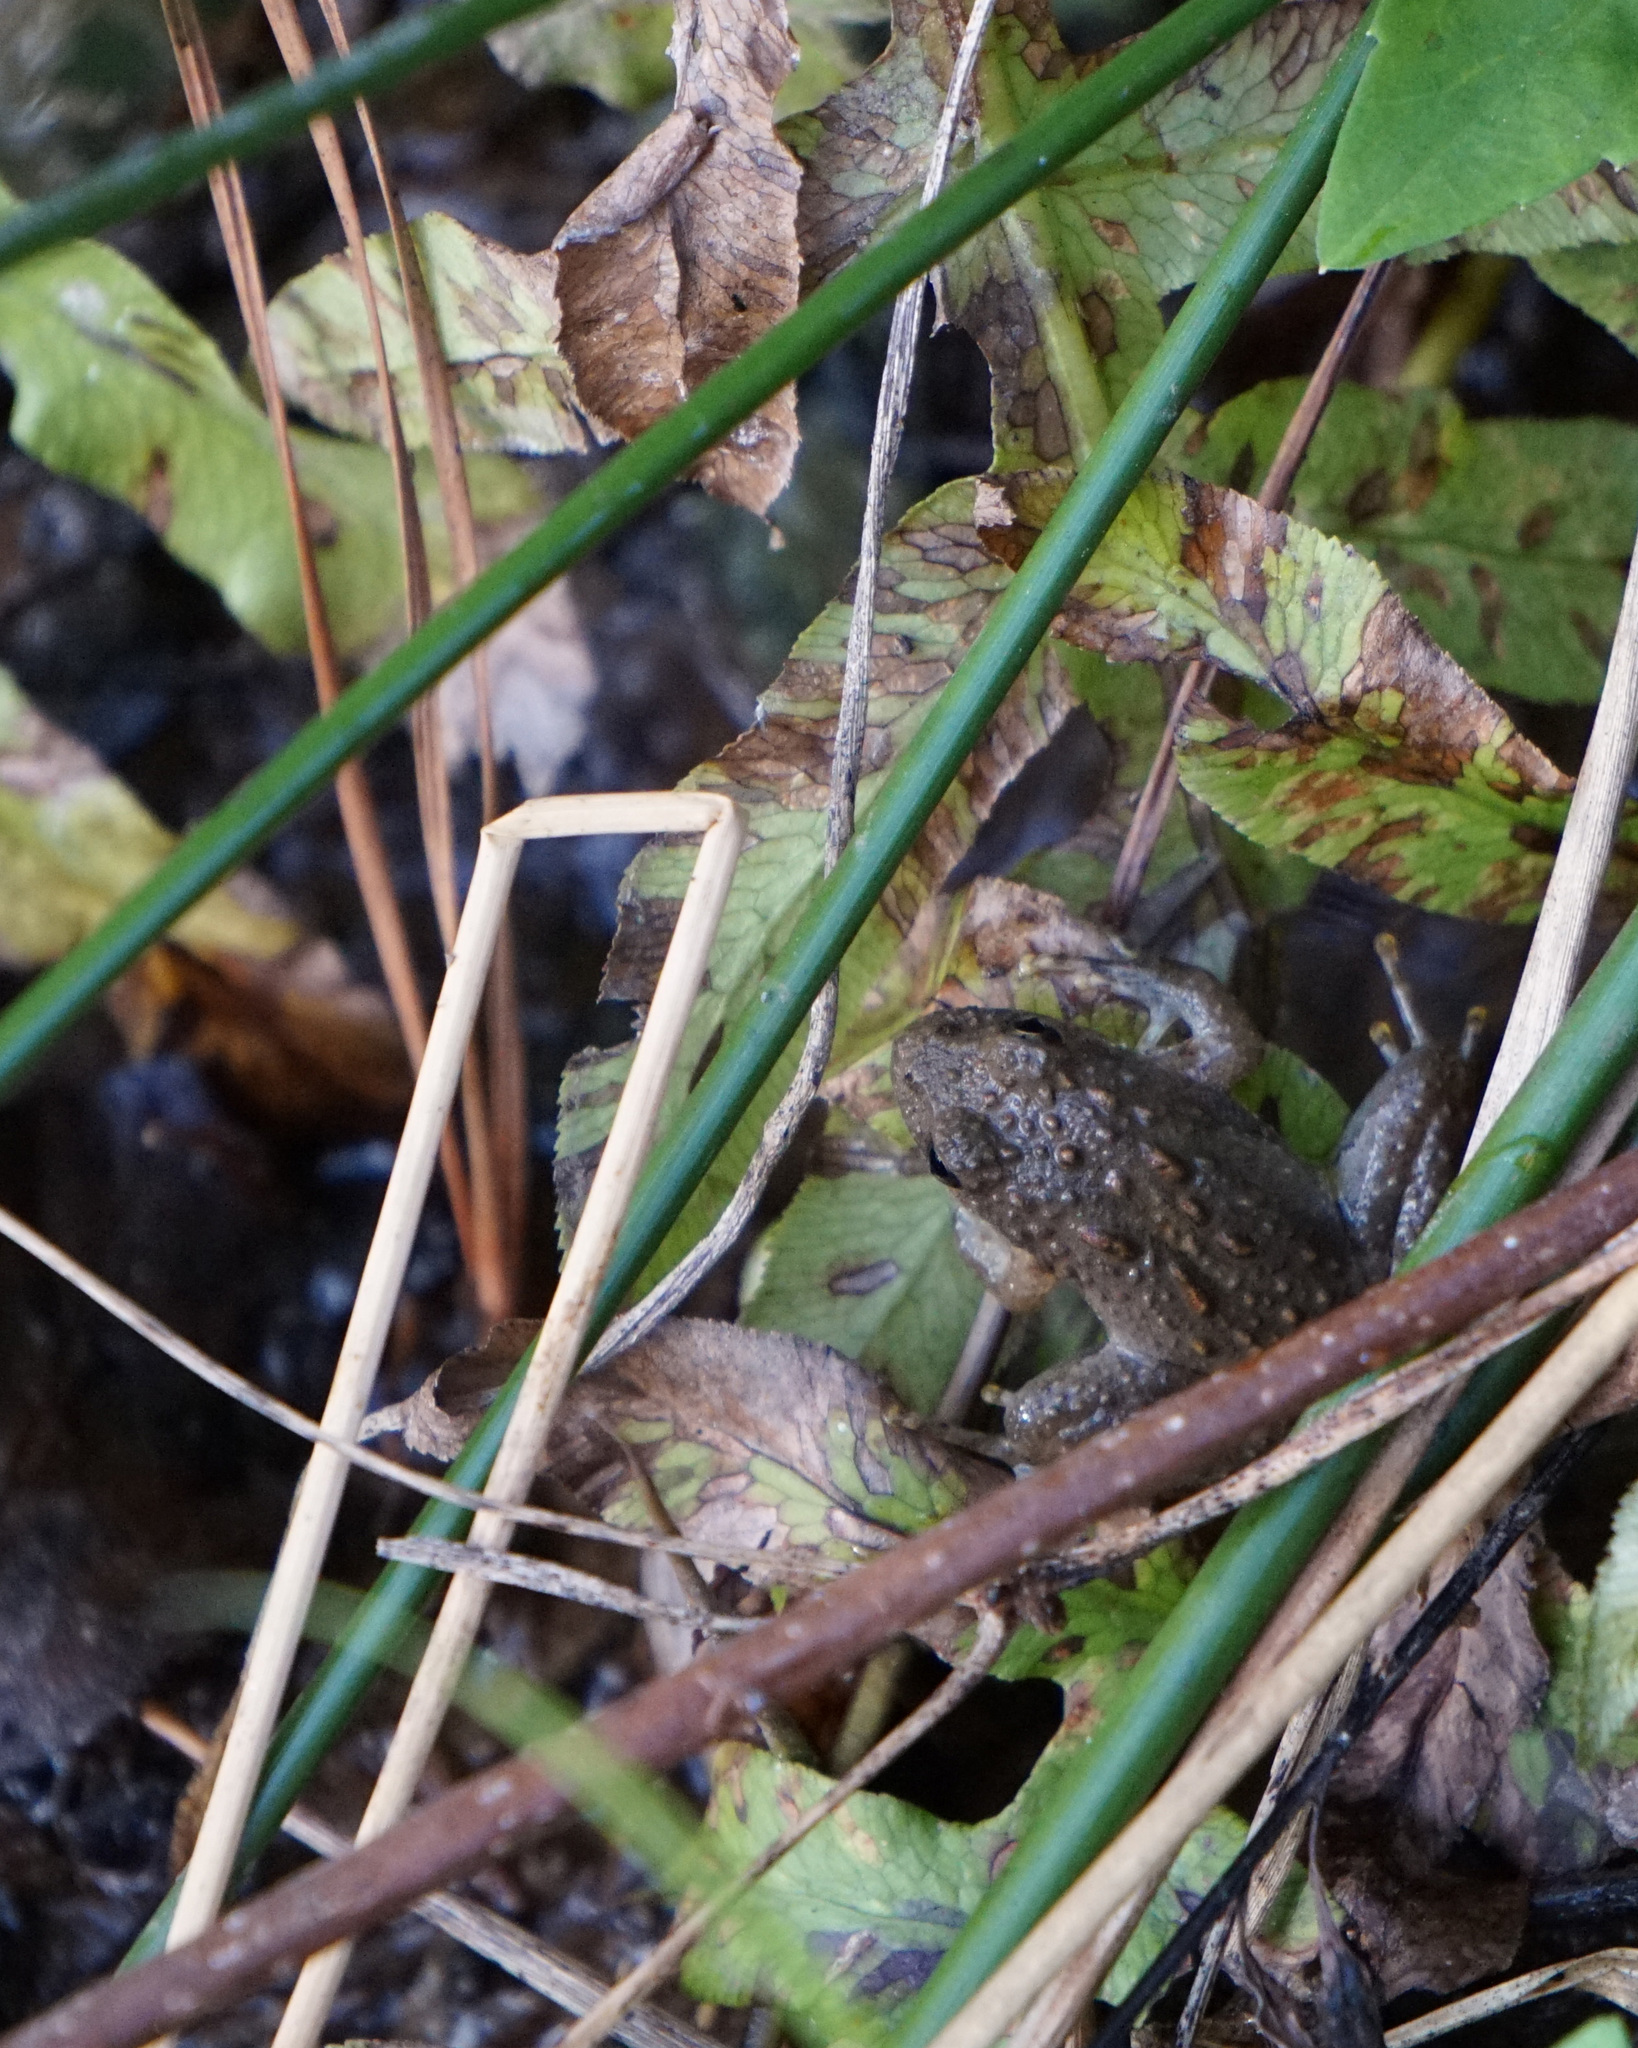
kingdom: Animalia
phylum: Chordata
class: Amphibia
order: Anura
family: Hylidae
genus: Acris
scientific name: Acris crepitans
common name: Northern cricket frog
